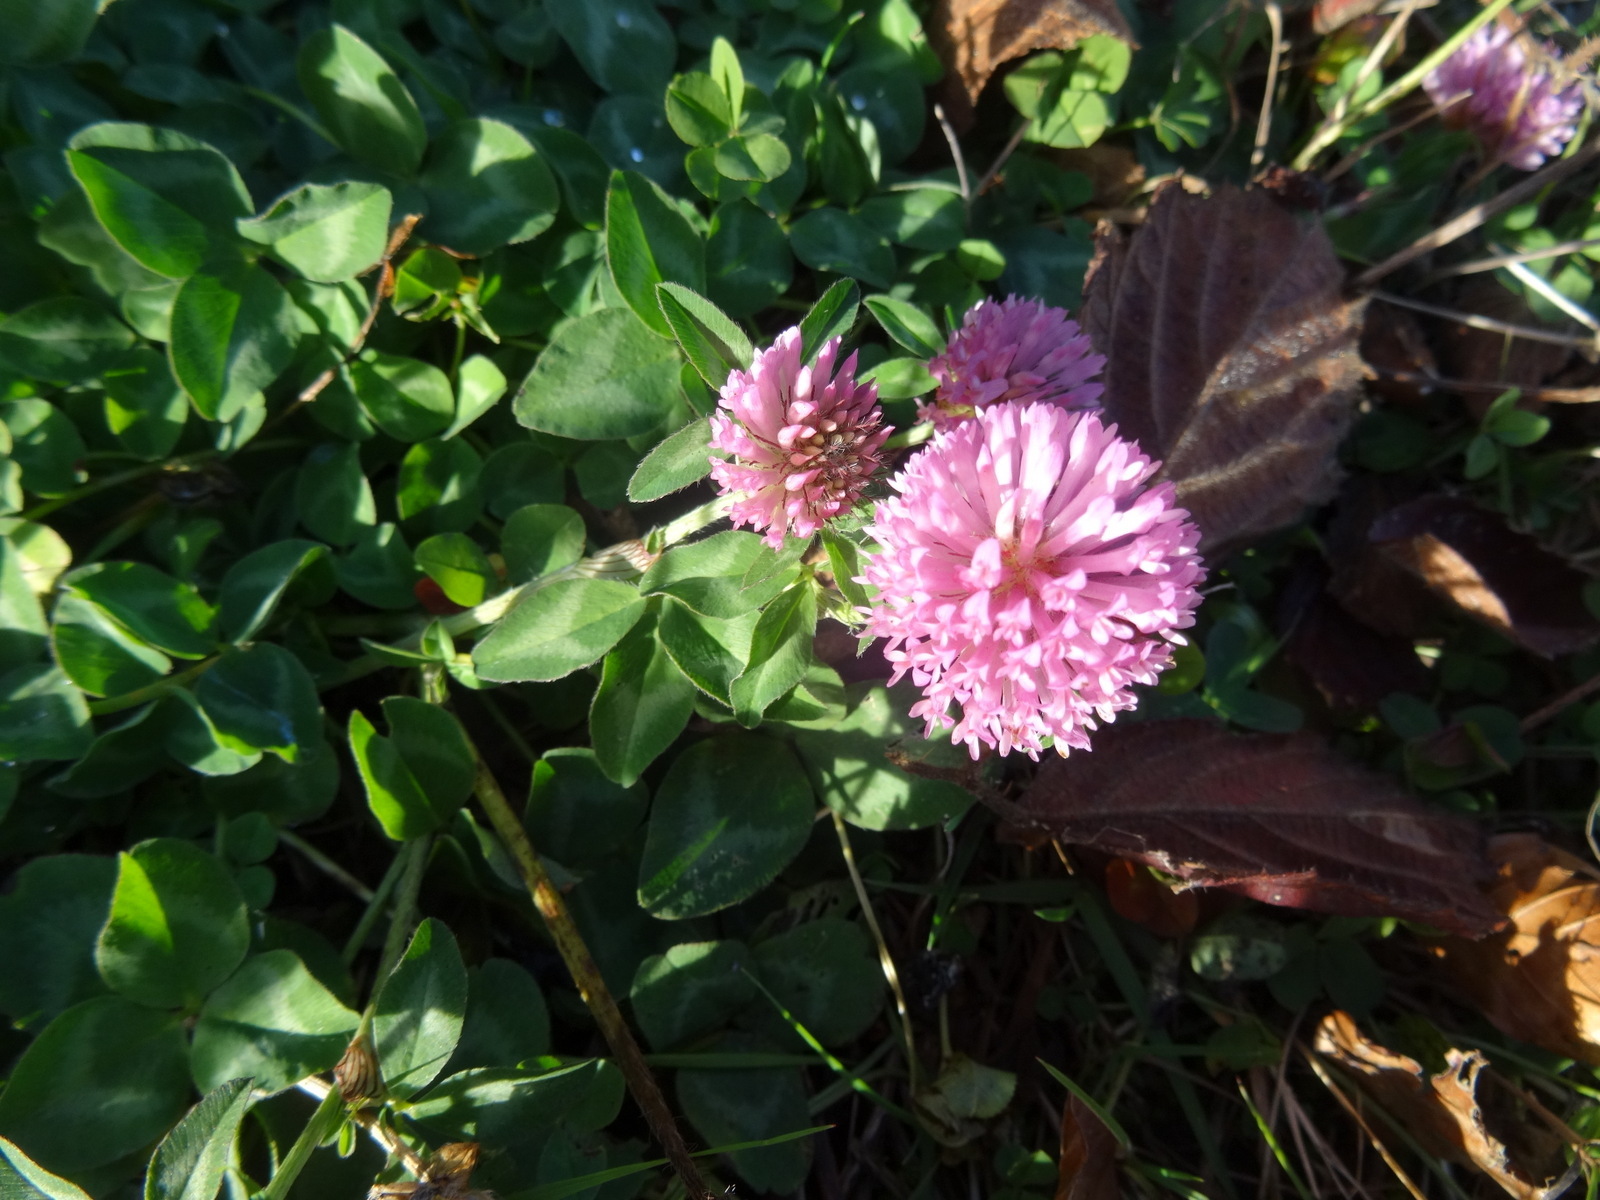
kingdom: Plantae
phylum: Tracheophyta
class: Magnoliopsida
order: Fabales
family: Fabaceae
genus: Trifolium
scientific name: Trifolium pratense
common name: Red clover
